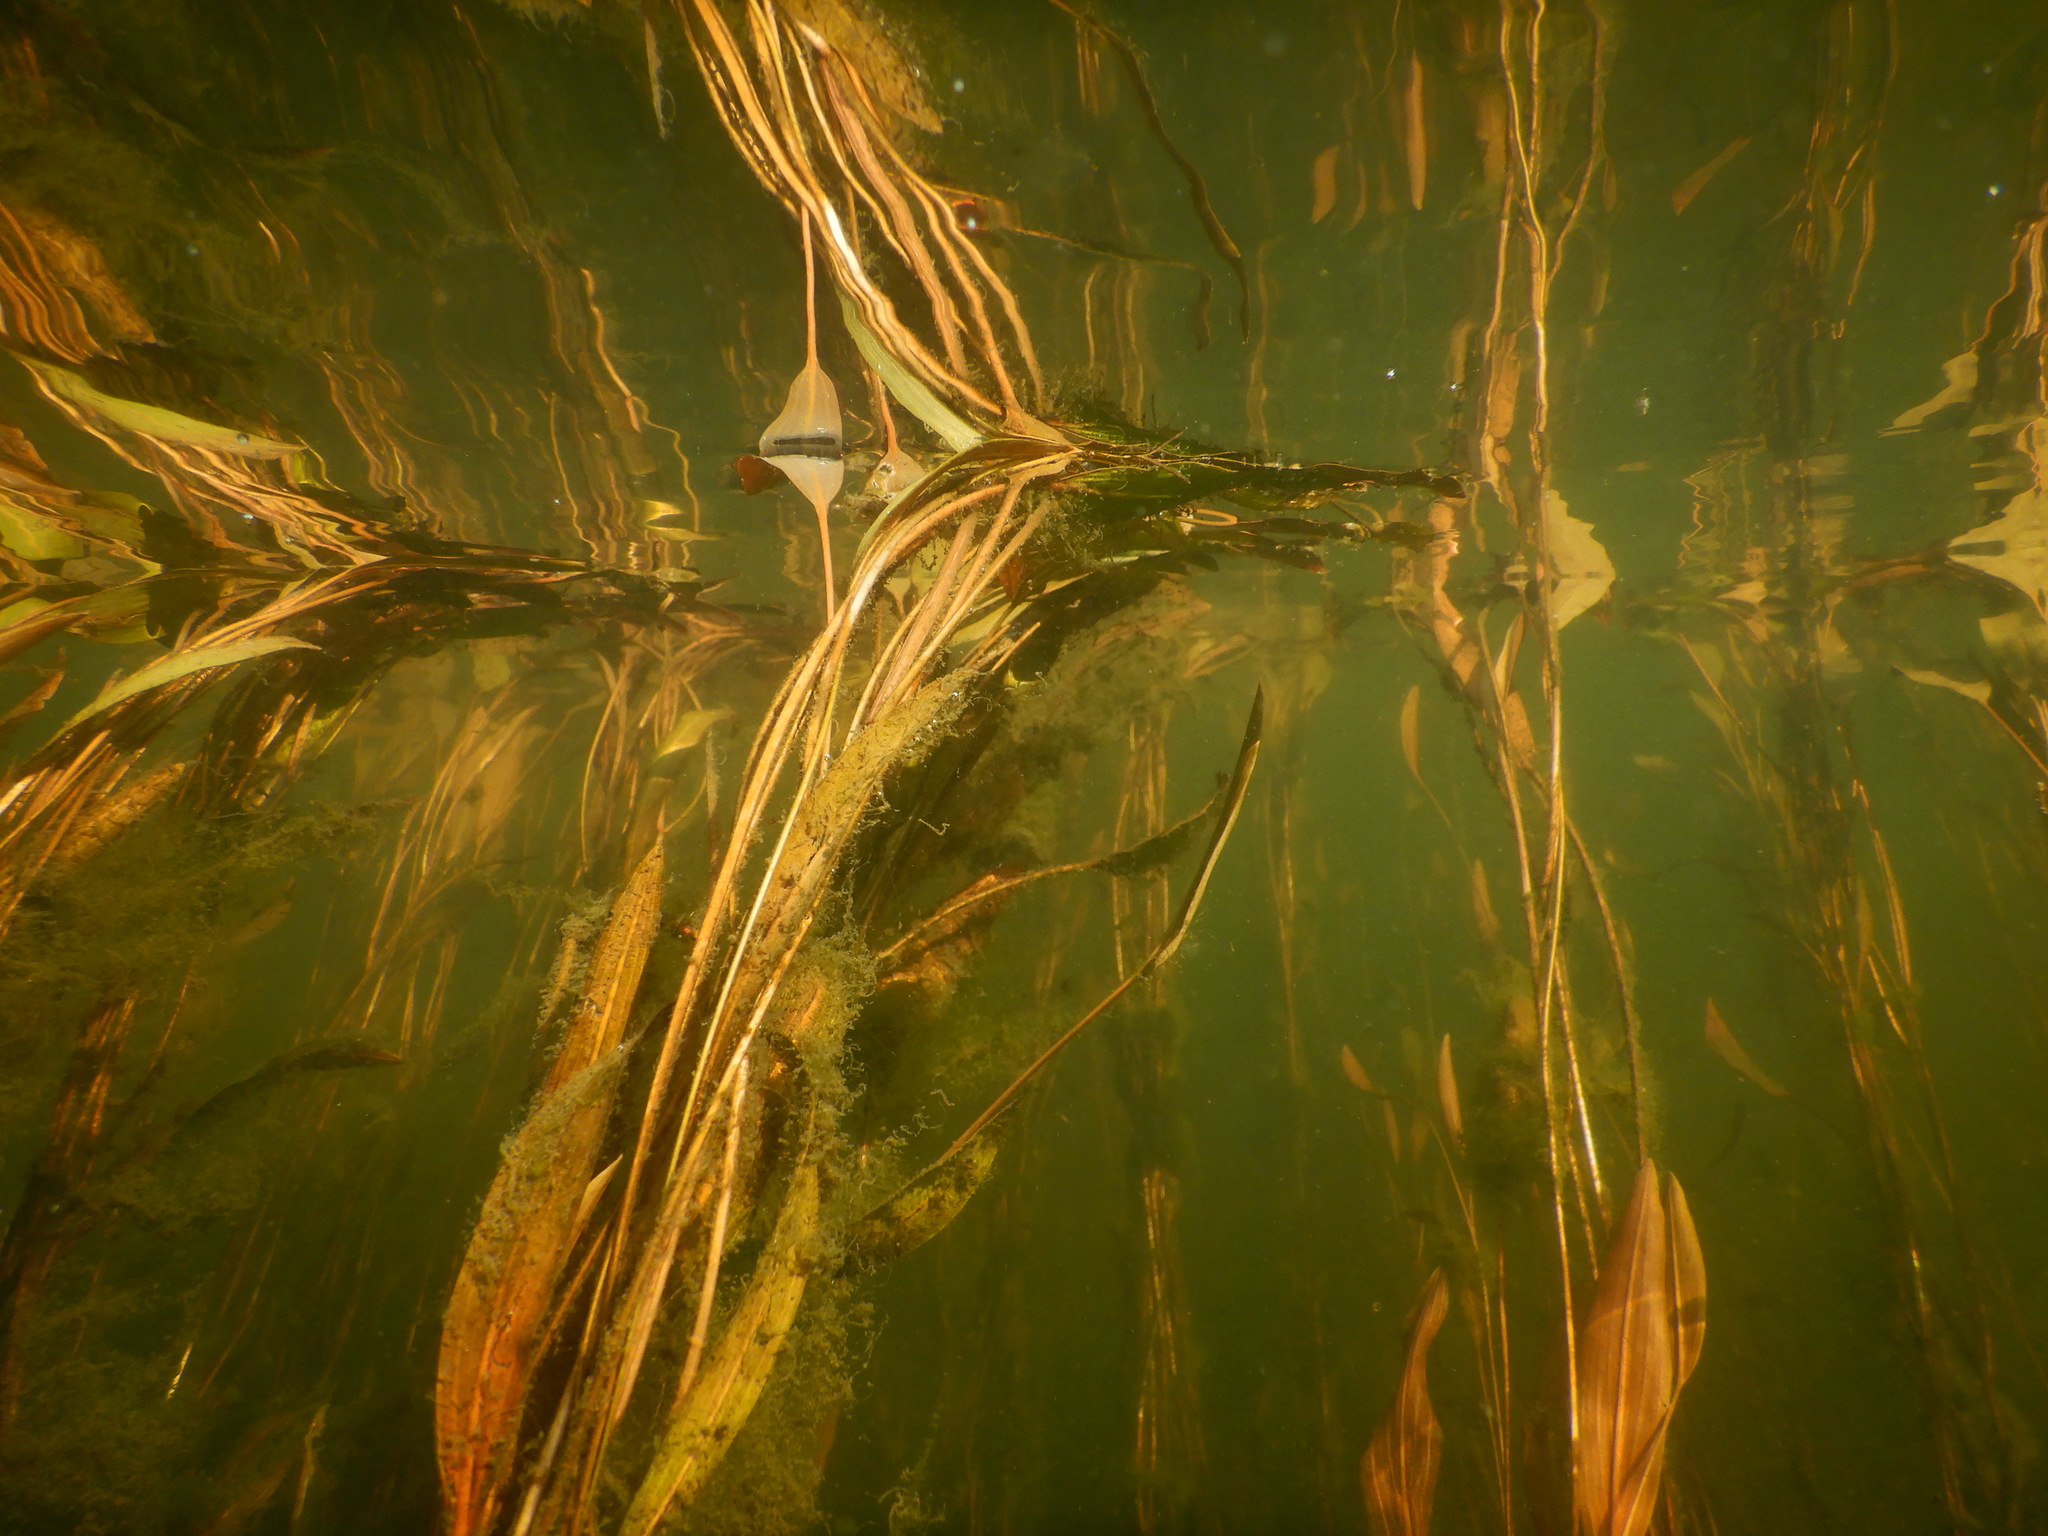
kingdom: Plantae
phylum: Tracheophyta
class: Liliopsida
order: Alismatales
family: Potamogetonaceae
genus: Potamogeton
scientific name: Potamogeton nodosus
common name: Loddon pondweed
